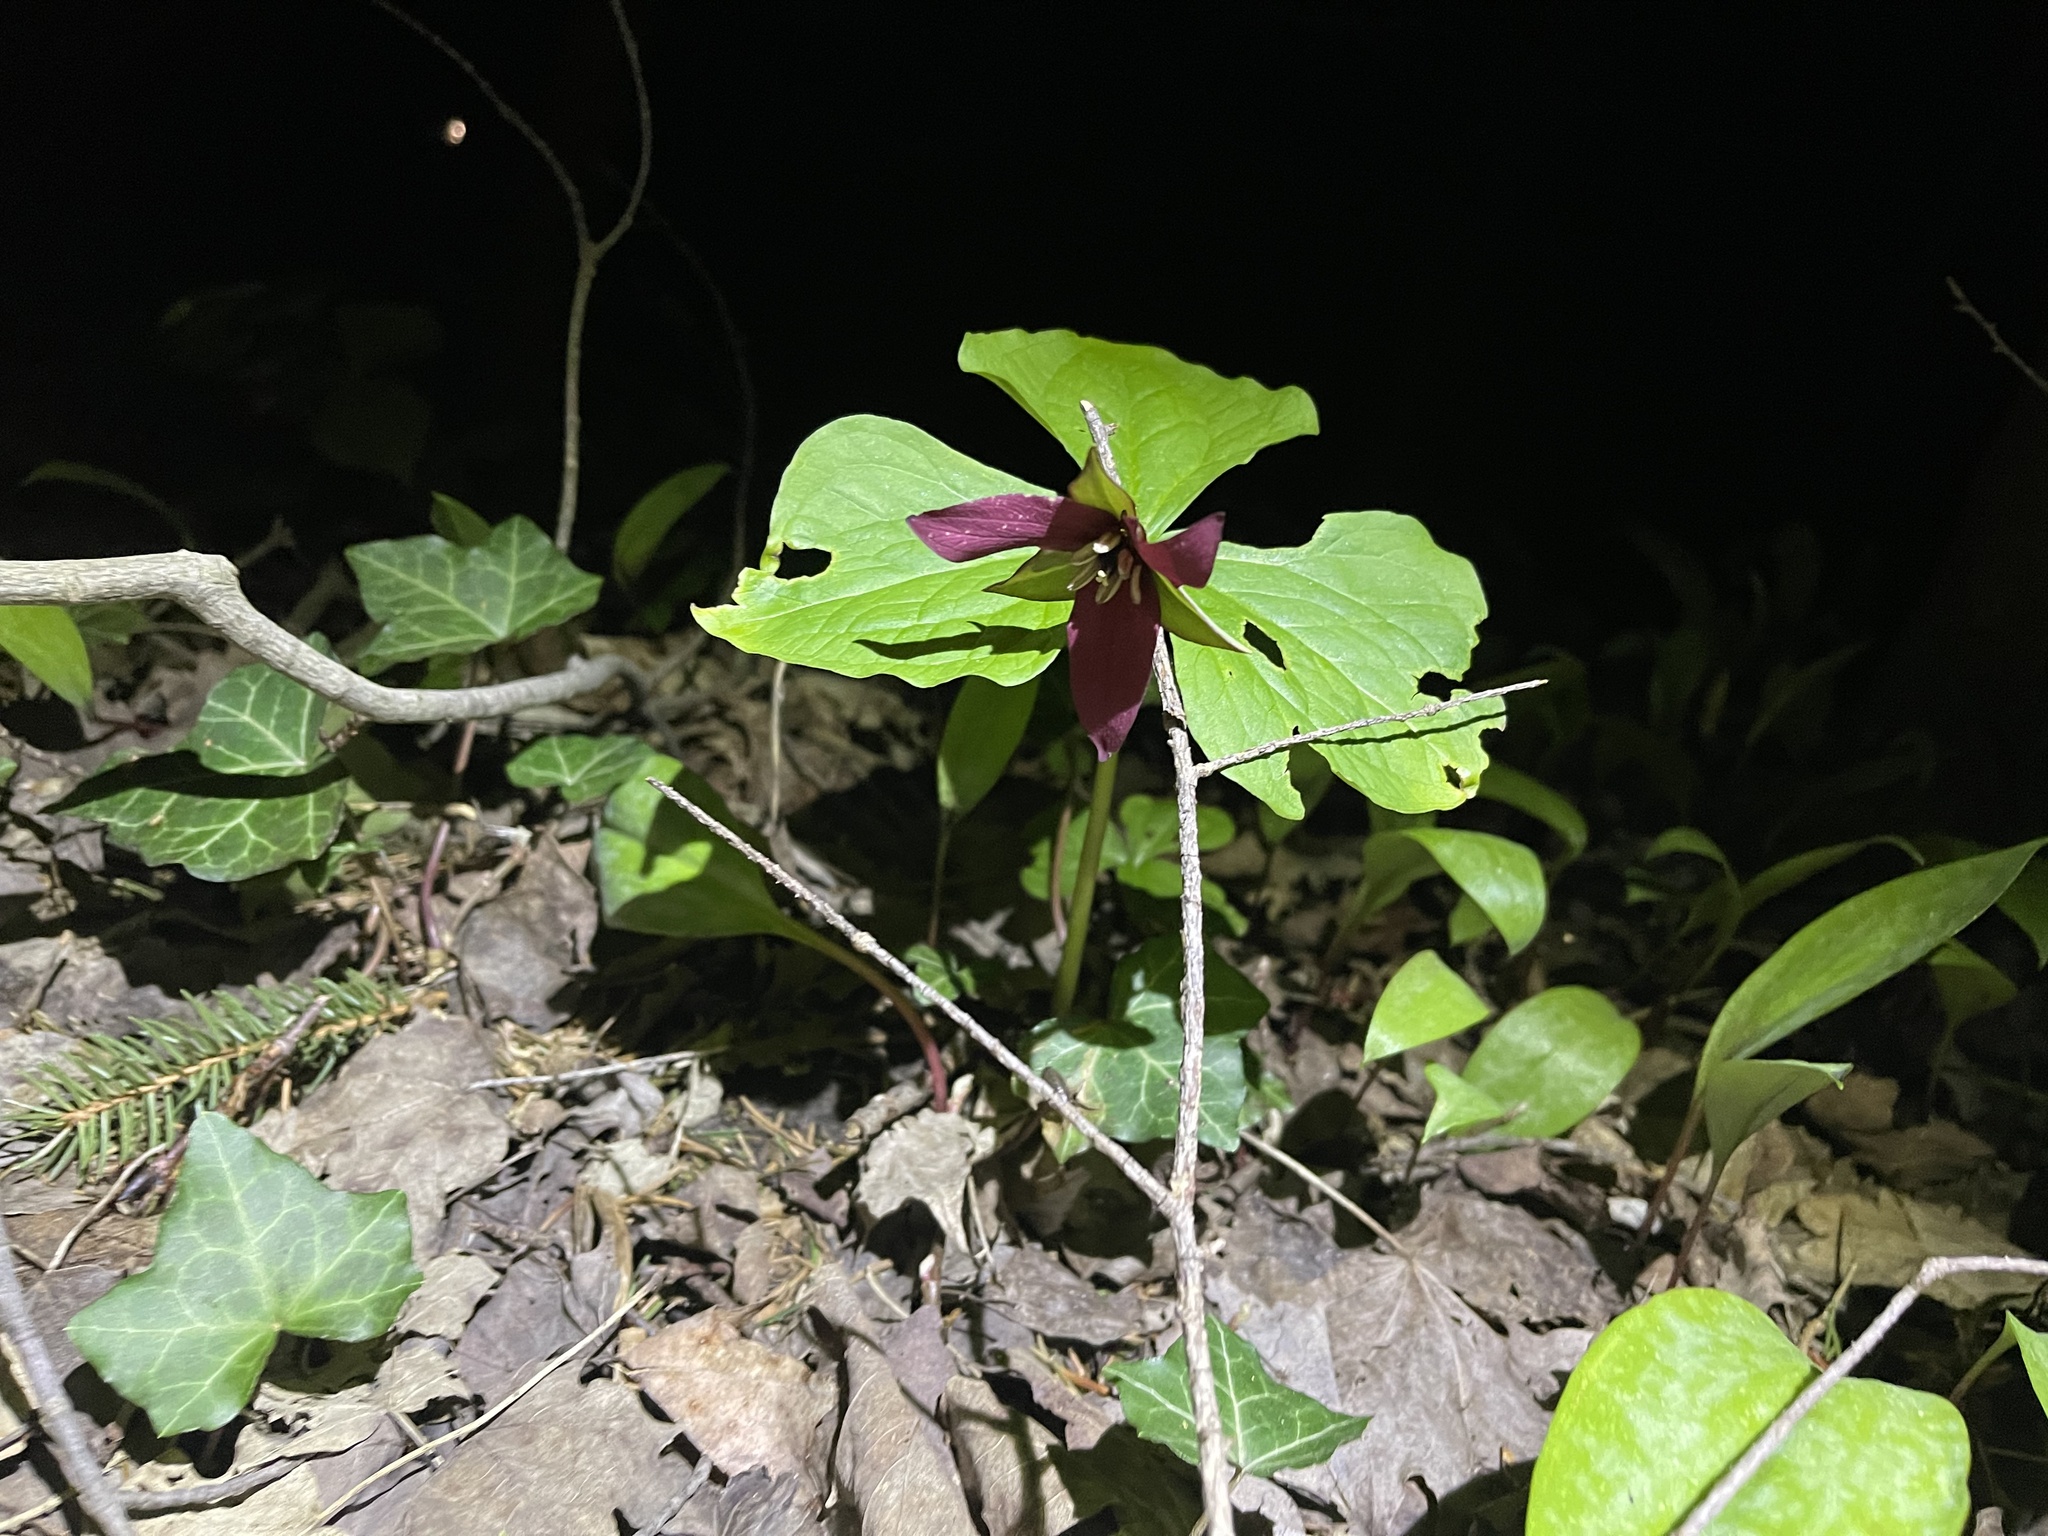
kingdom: Plantae
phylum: Tracheophyta
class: Liliopsida
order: Liliales
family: Melanthiaceae
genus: Trillium
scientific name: Trillium erectum
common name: Purple trillium
